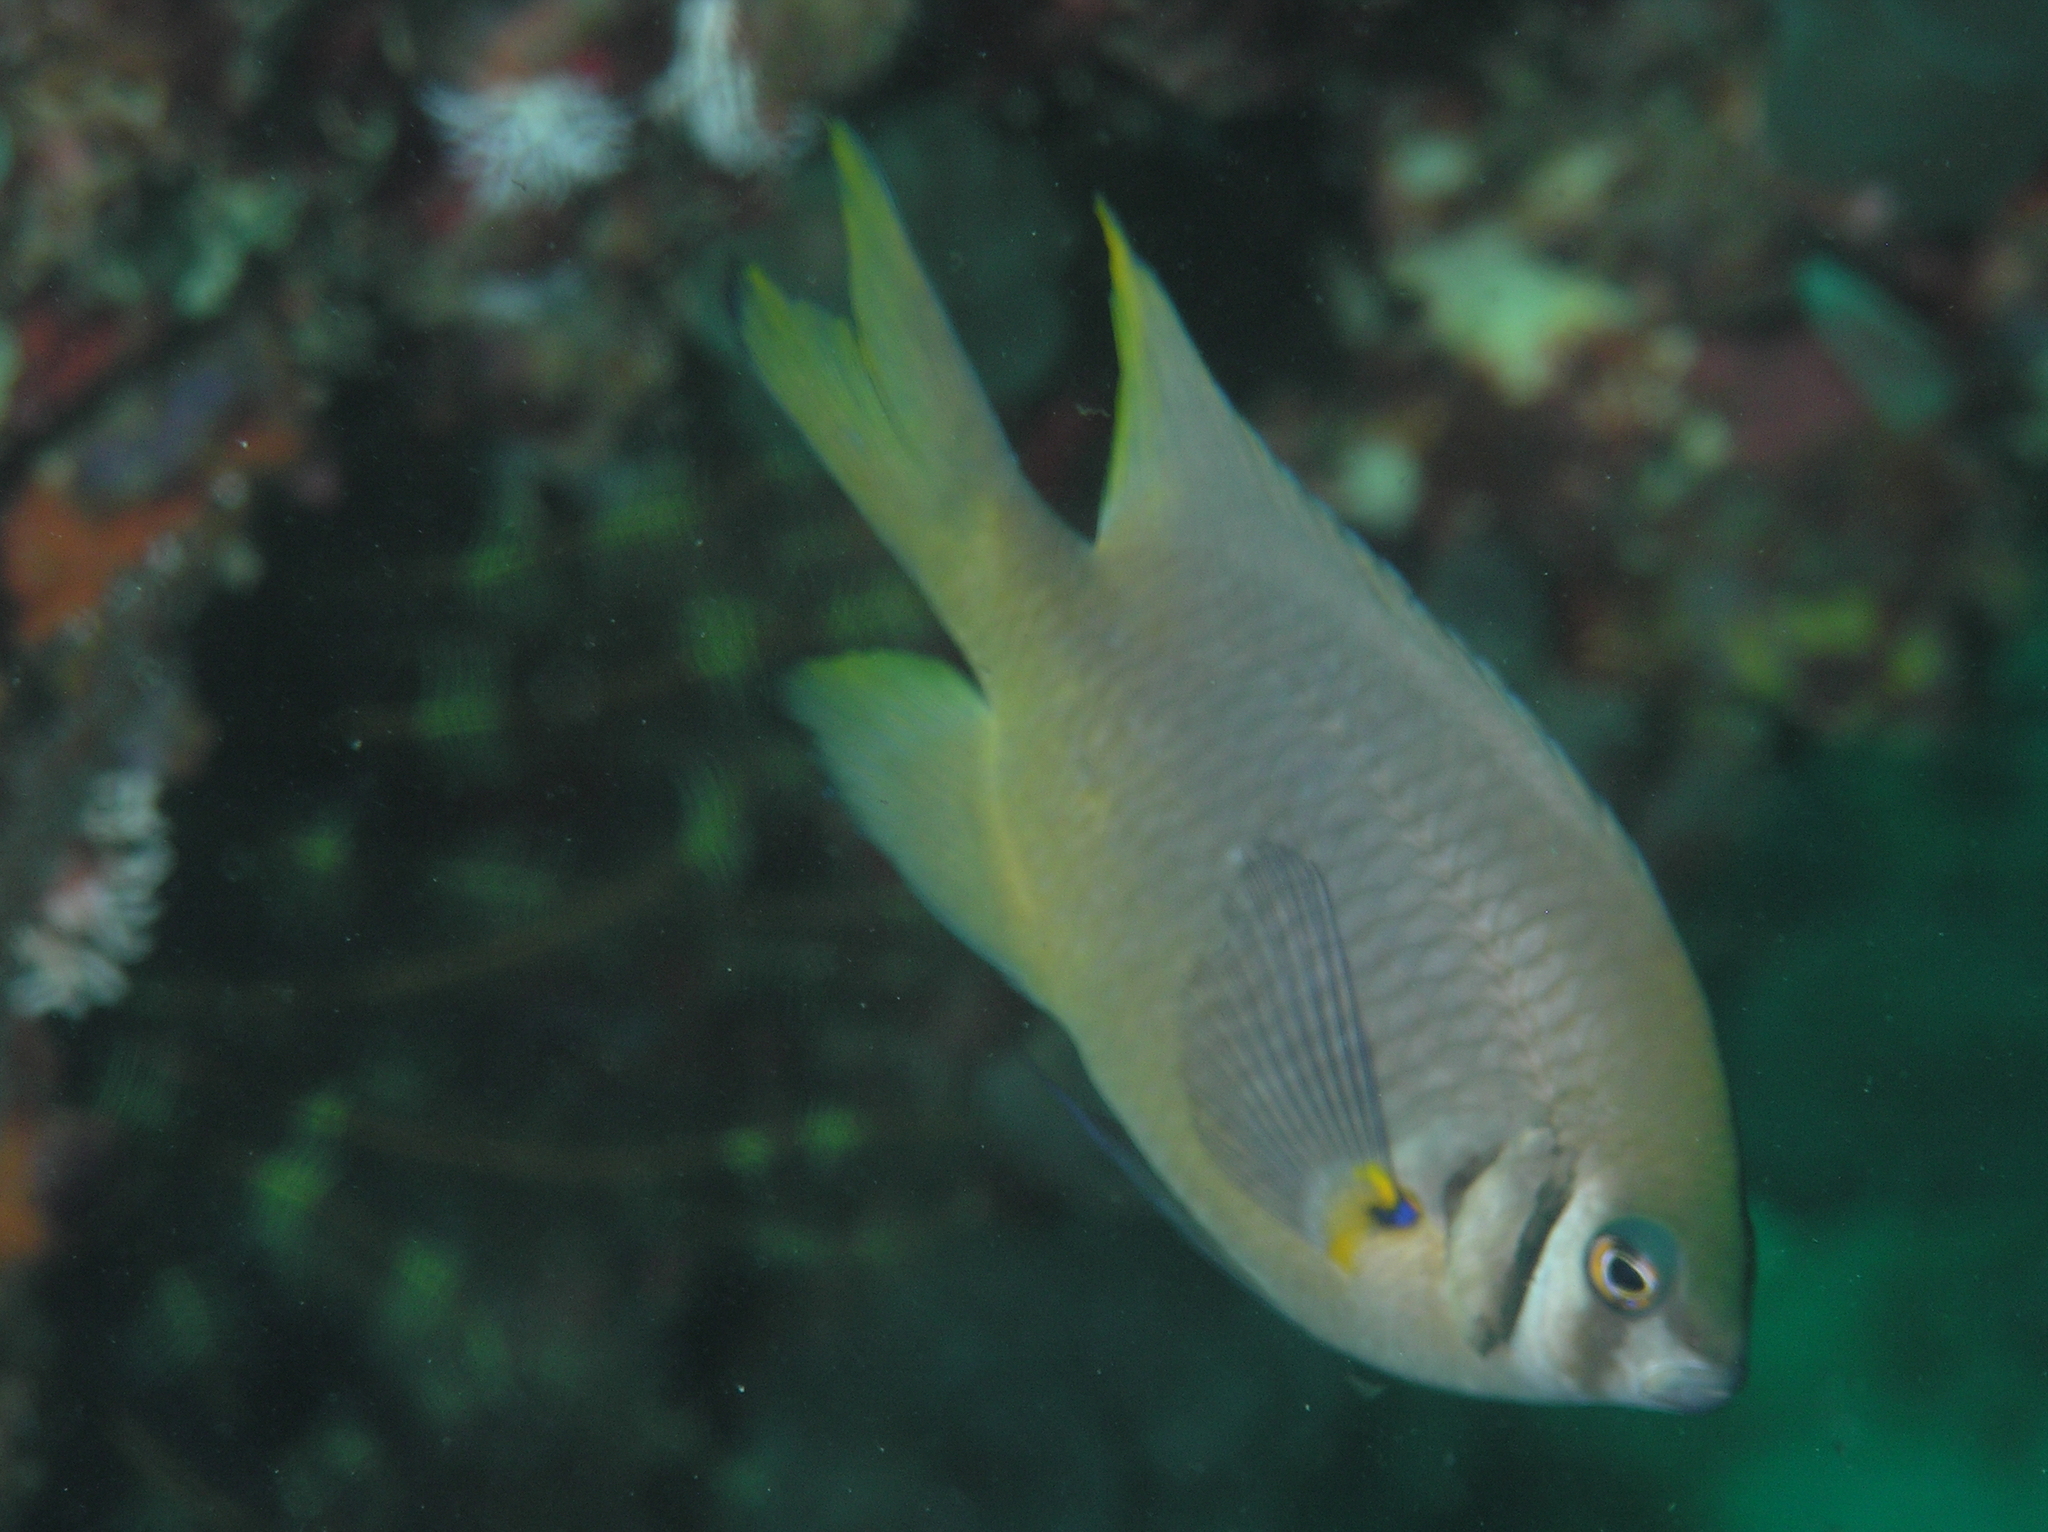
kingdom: Animalia
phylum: Chordata
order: Perciformes
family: Pomacentridae
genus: Neoglyphidodon
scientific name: Neoglyphidodon nigroris
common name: Behn's damsel
